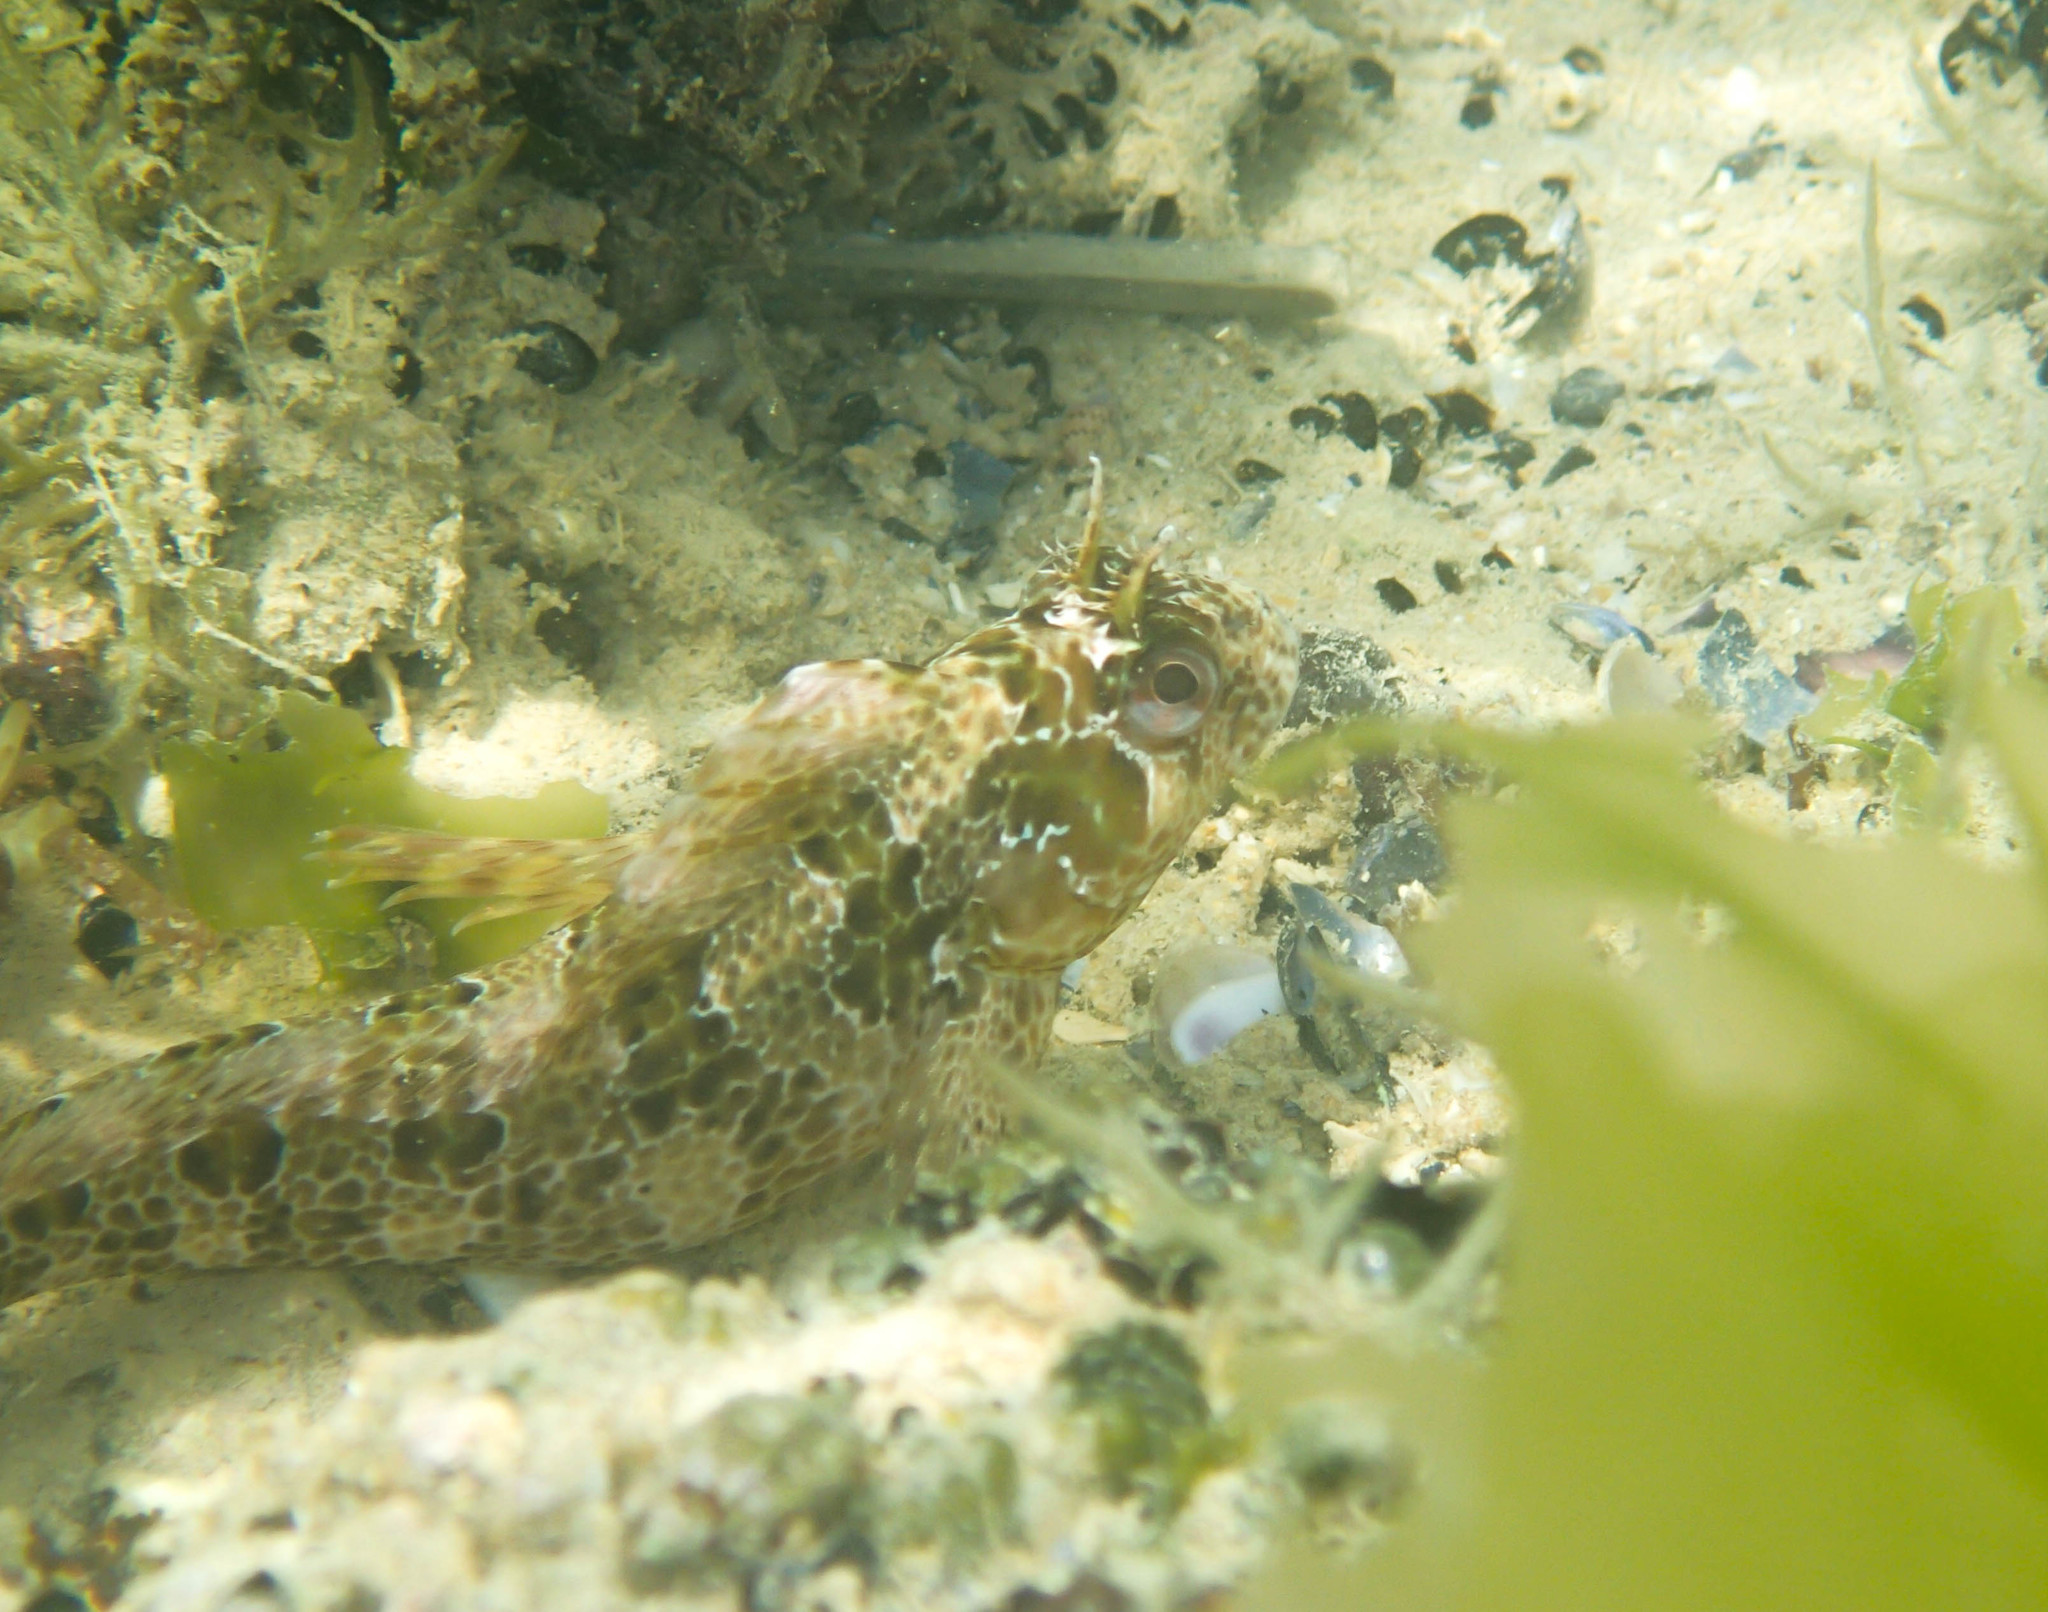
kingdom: Animalia
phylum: Chordata
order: Perciformes
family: Blenniidae
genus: Parablennius
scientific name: Parablennius gattorugine
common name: Tompot blenny
